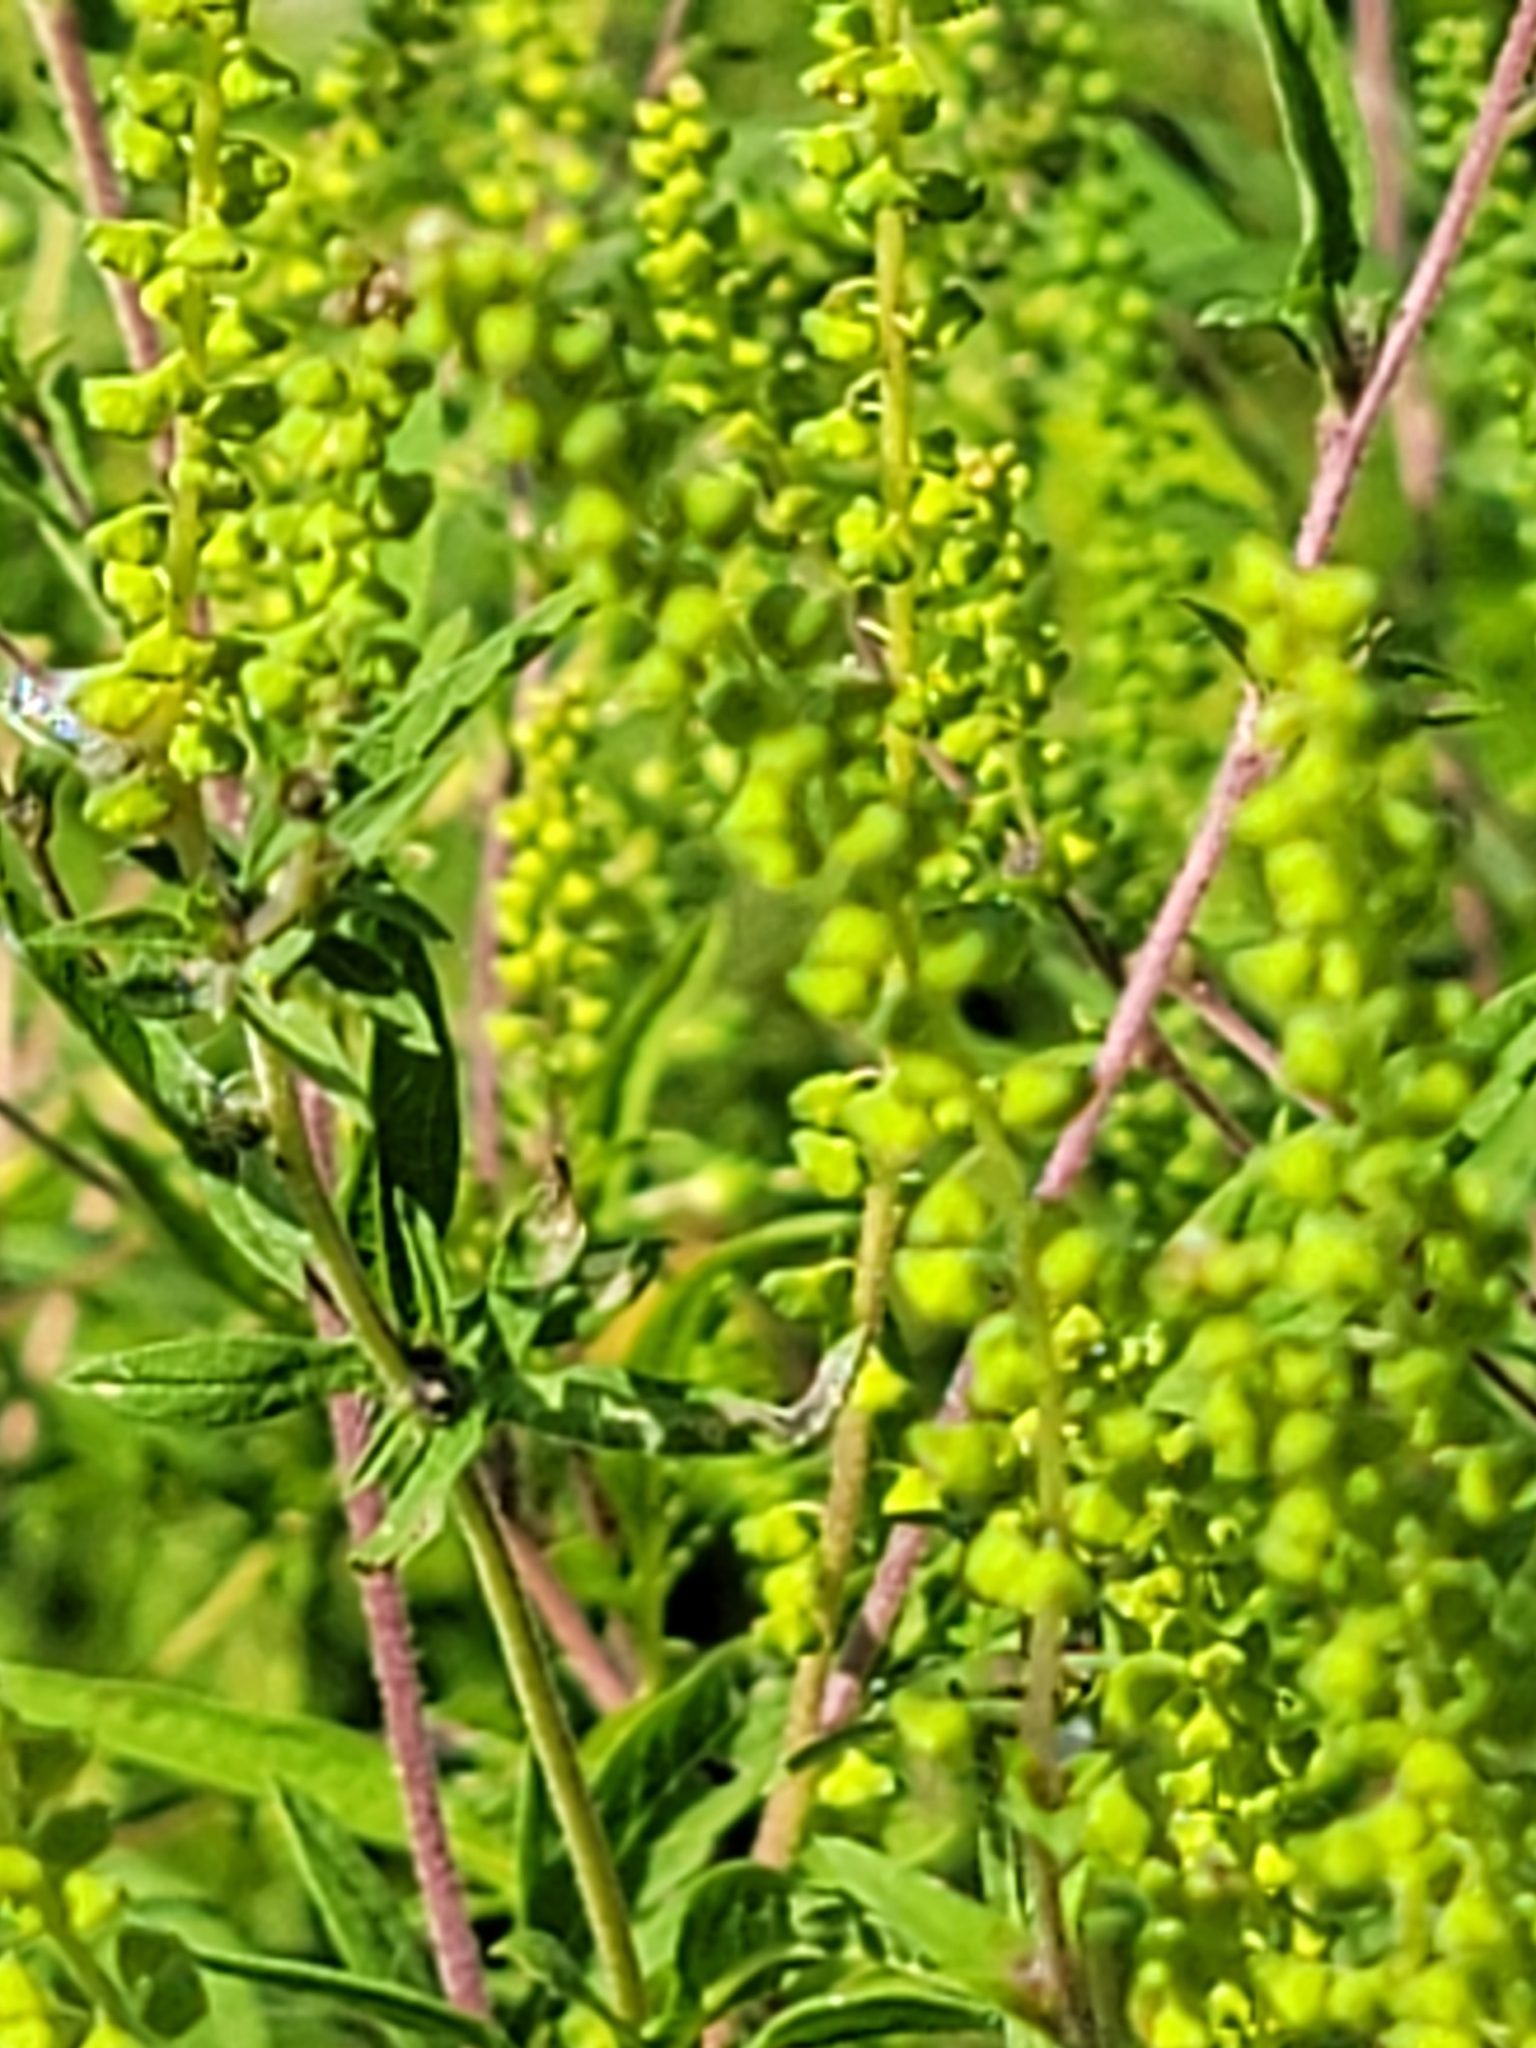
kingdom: Plantae
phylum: Tracheophyta
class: Magnoliopsida
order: Asterales
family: Asteraceae
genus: Ambrosia
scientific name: Ambrosia artemisiifolia
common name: Annual ragweed
